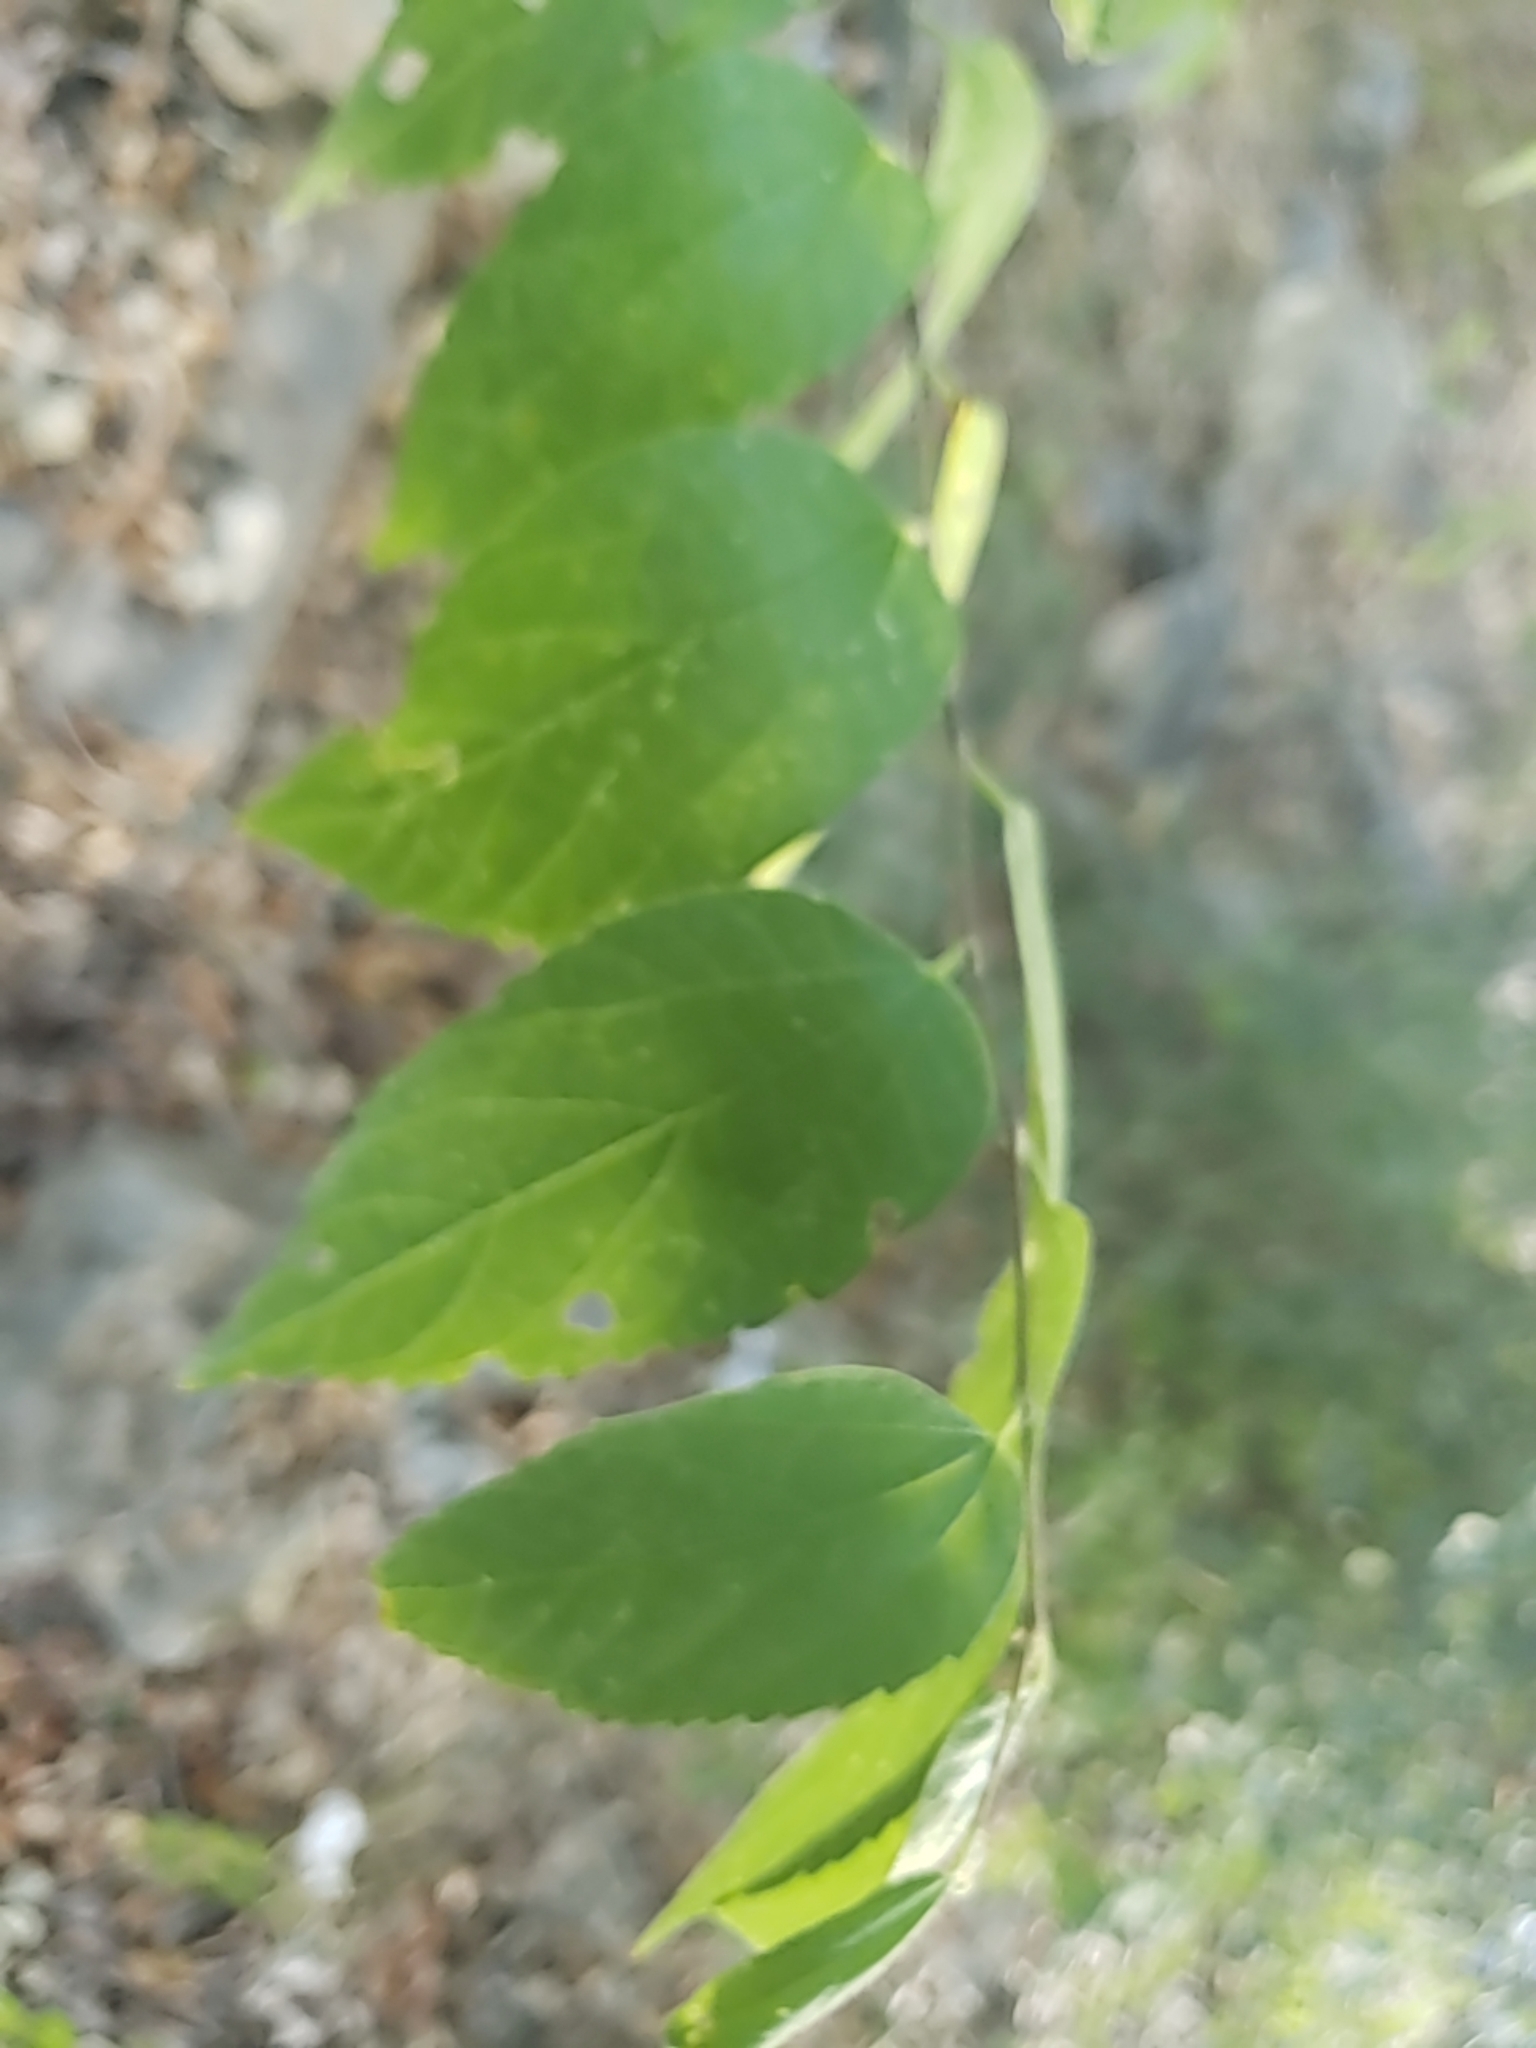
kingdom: Plantae
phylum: Tracheophyta
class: Magnoliopsida
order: Rosales
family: Cannabaceae
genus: Celtis
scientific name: Celtis laevigata
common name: Sugarberry
